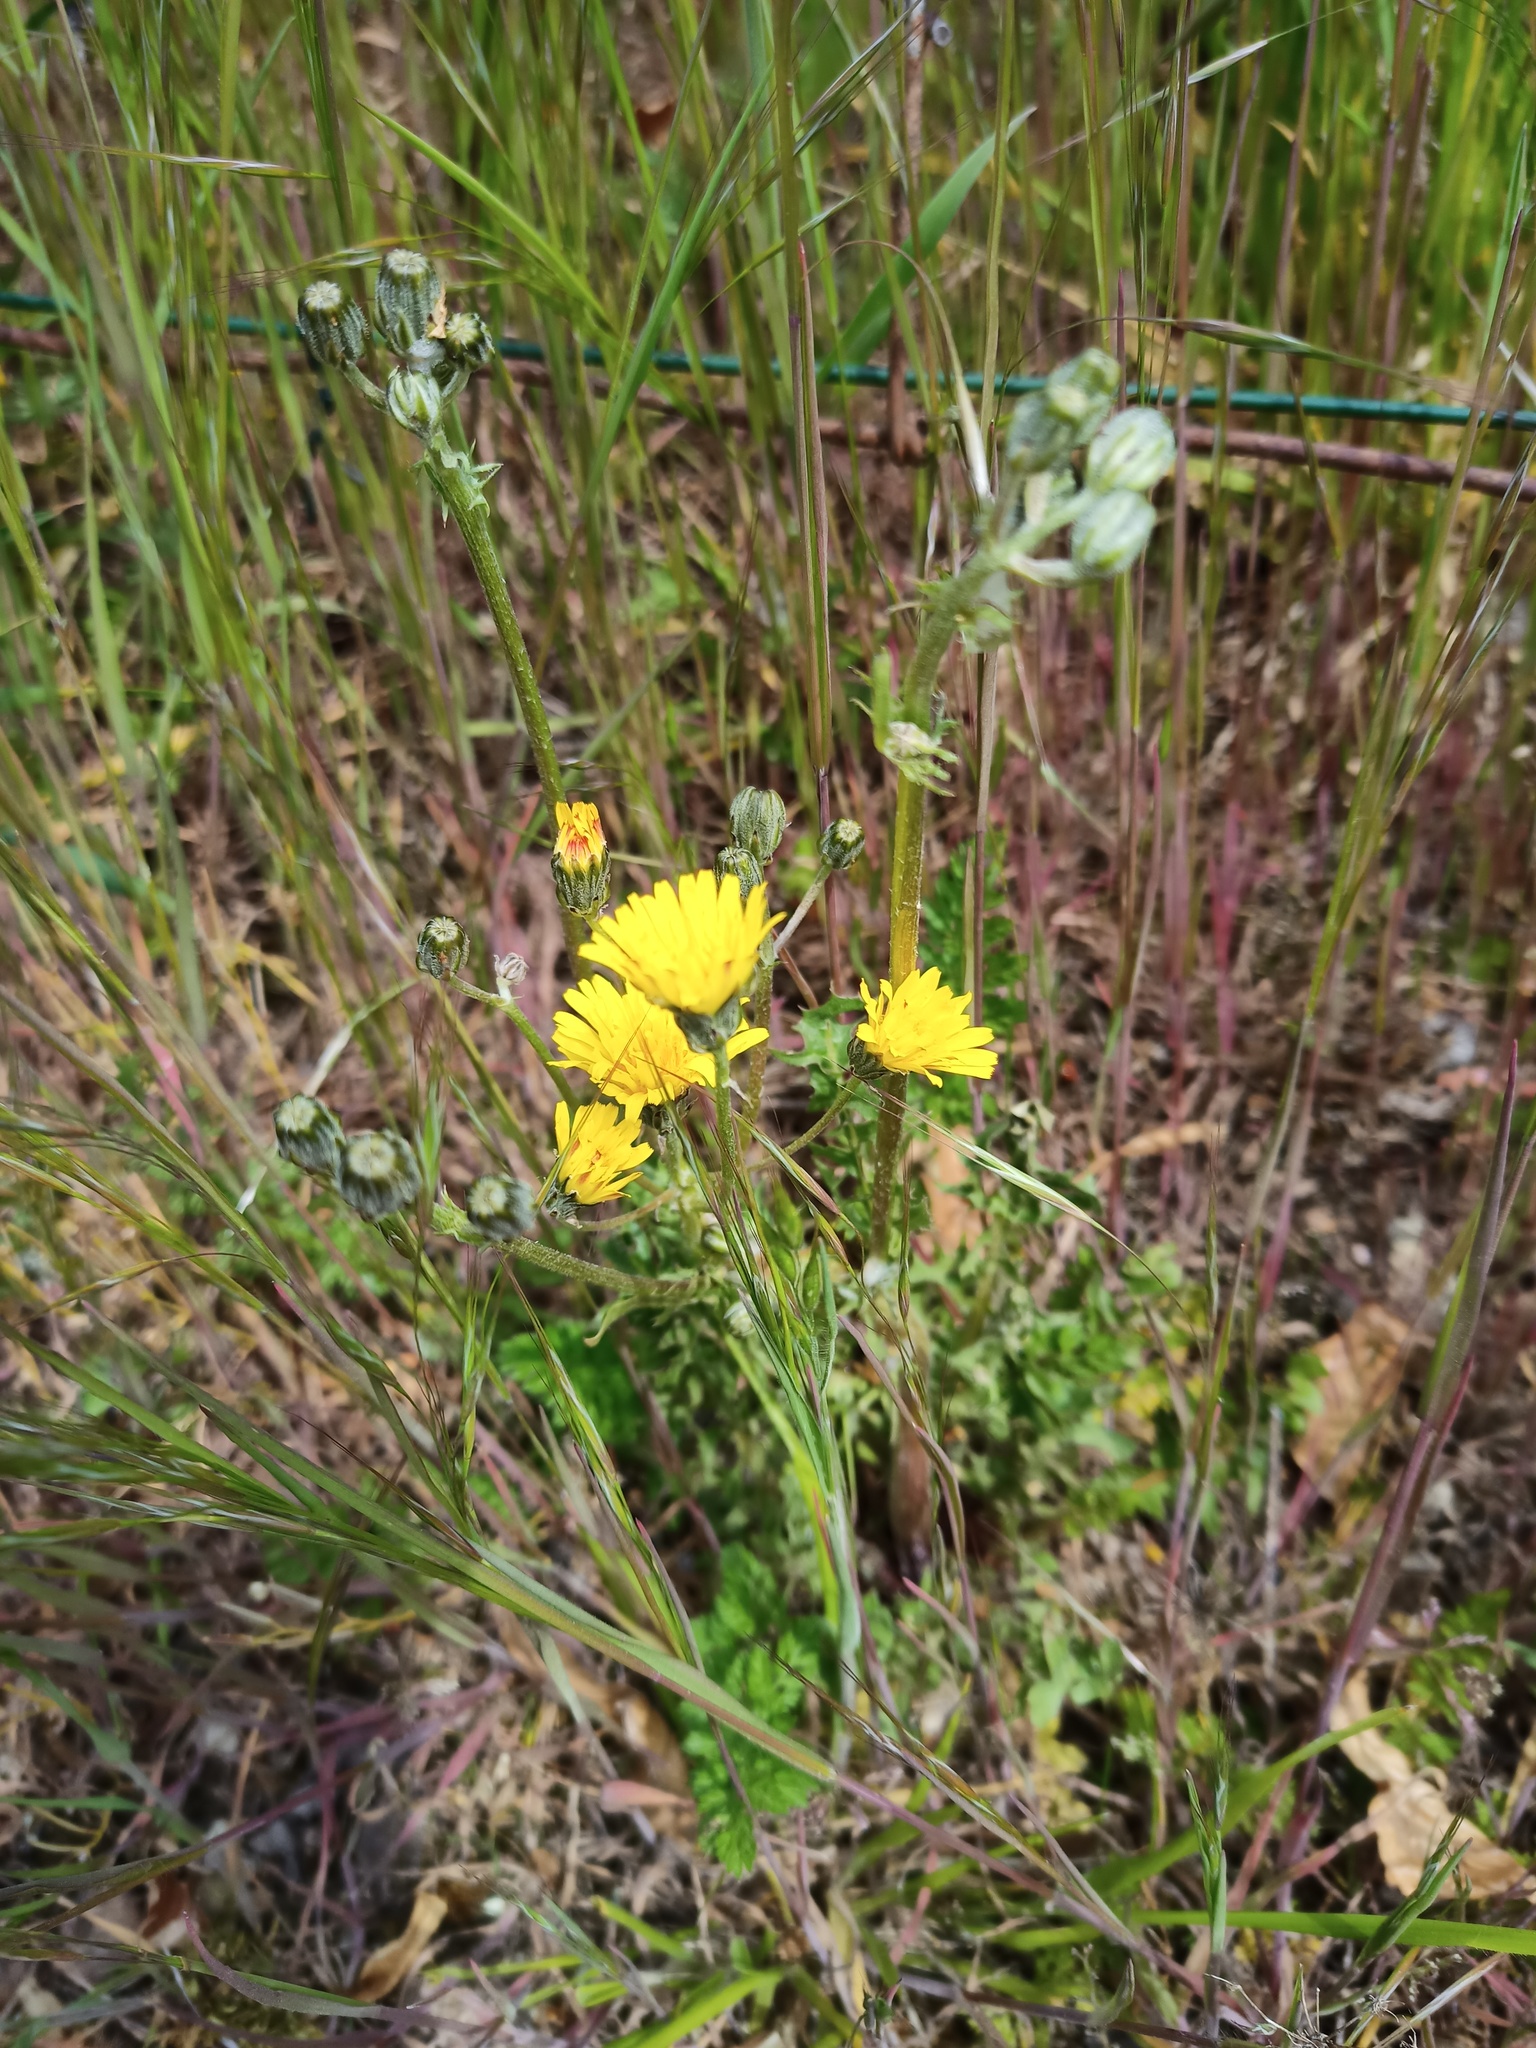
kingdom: Plantae
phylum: Tracheophyta
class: Magnoliopsida
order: Asterales
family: Asteraceae
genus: Crepis
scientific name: Crepis biennis
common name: Rough hawk's-beard
